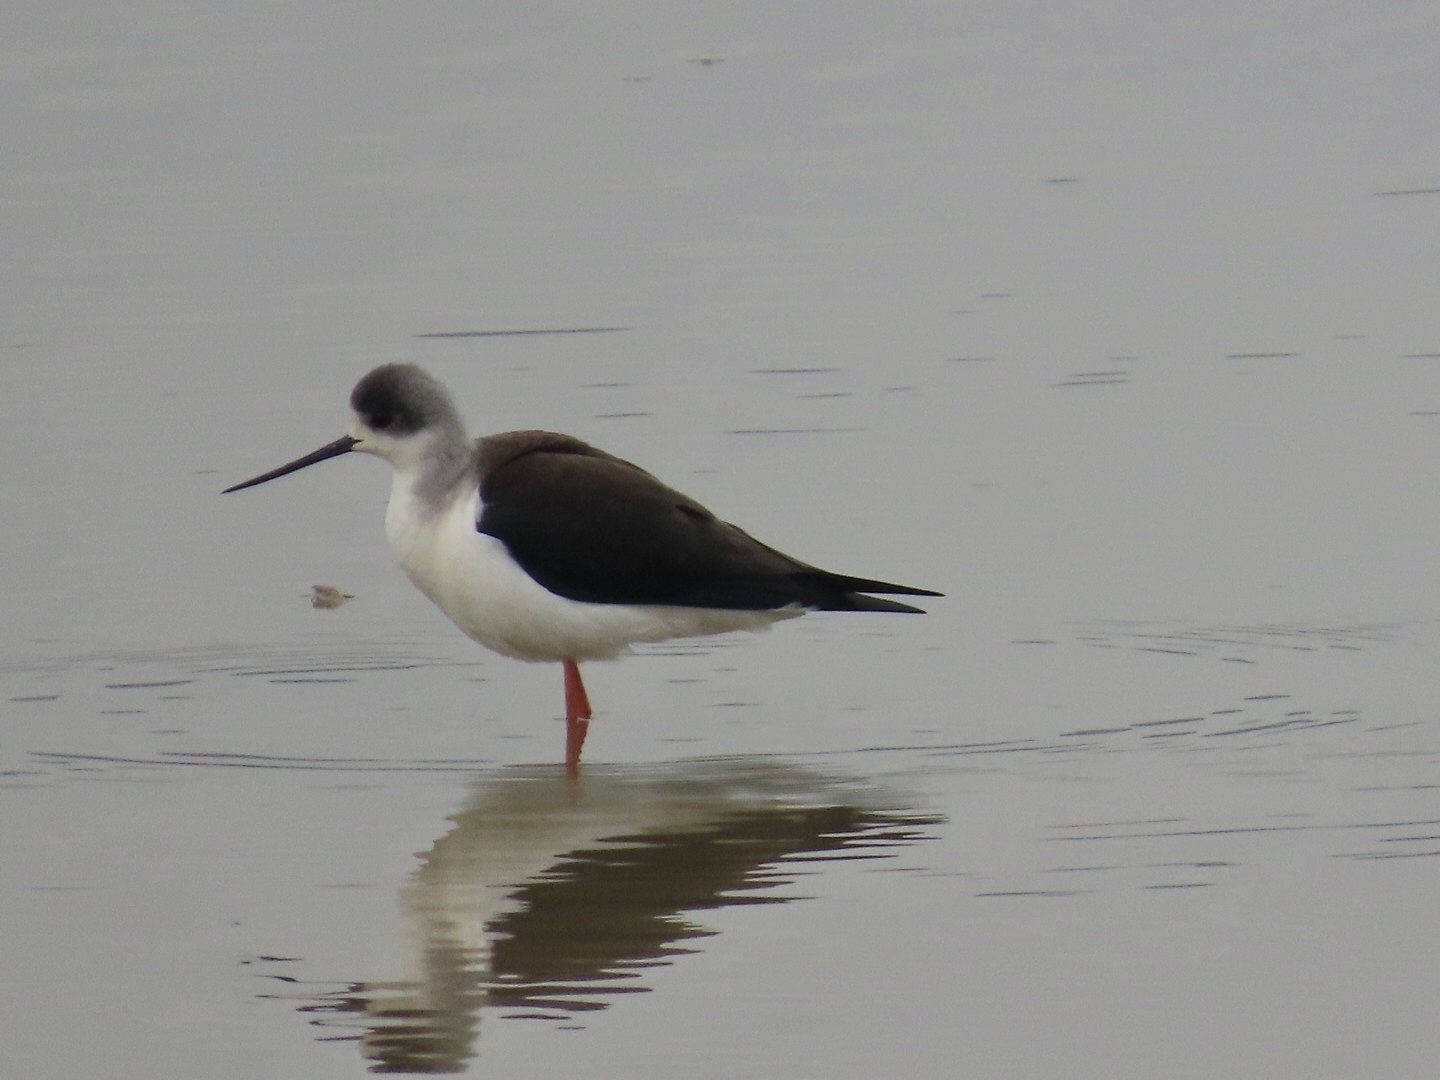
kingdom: Animalia
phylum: Chordata
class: Aves
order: Charadriiformes
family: Recurvirostridae
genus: Himantopus
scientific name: Himantopus himantopus
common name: Black-winged stilt
